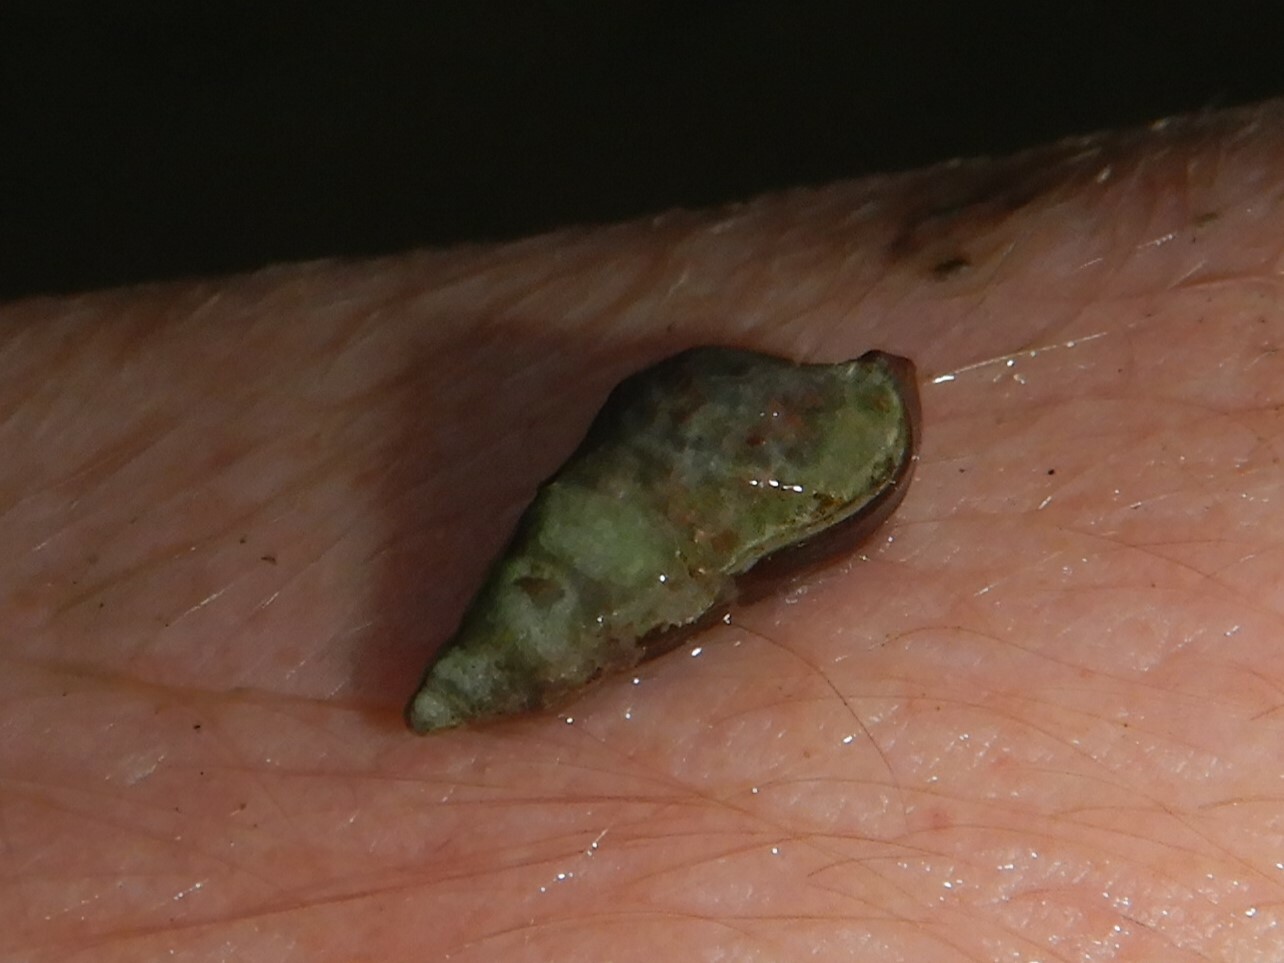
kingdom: Animalia
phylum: Mollusca
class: Gastropoda
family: Melanopsidae
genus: Microcolpia
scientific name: Microcolpia daudebartii
